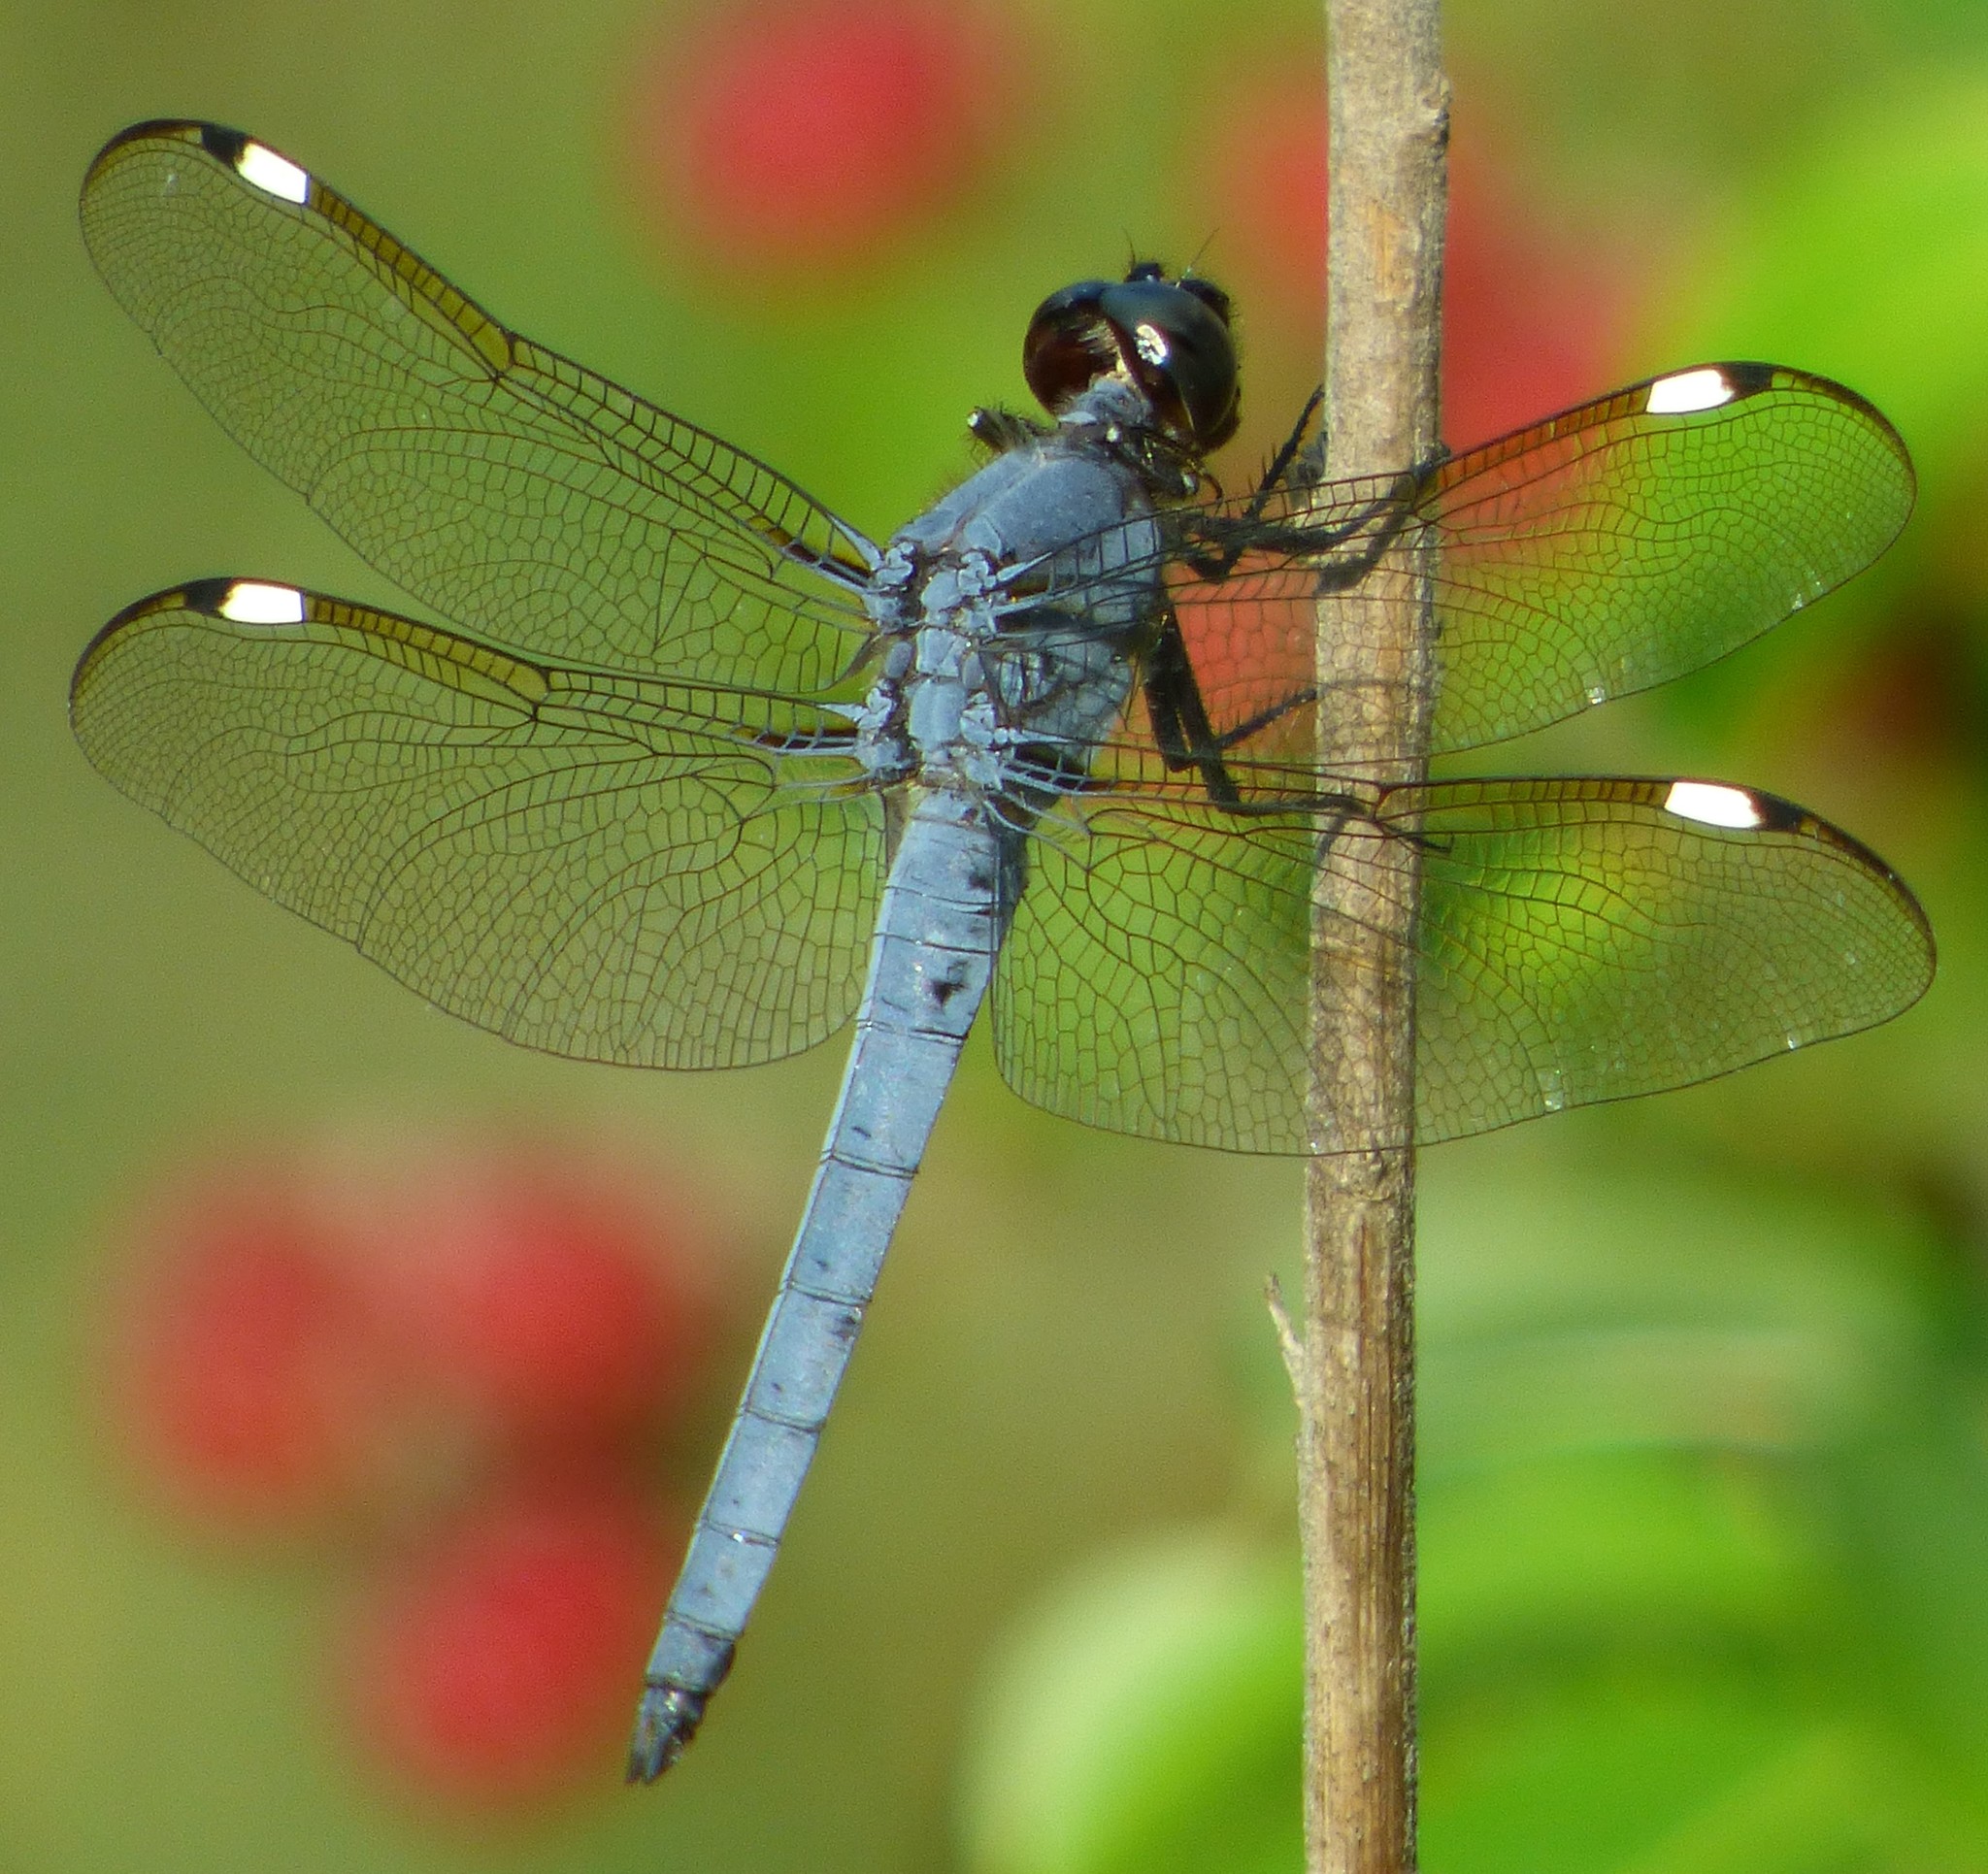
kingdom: Animalia
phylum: Arthropoda
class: Insecta
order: Odonata
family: Libellulidae
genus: Libellula
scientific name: Libellula cyanea
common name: Spangled skimmer
